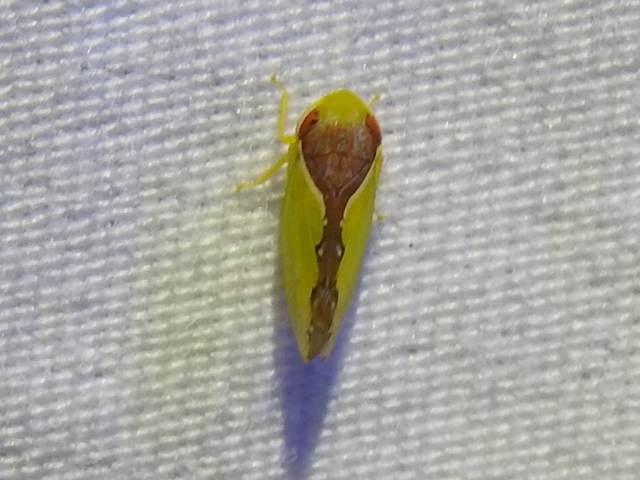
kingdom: Animalia
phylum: Arthropoda
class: Insecta
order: Hemiptera
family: Cicadellidae
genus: Omansobara ing
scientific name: Omansobara ing Omansobara palliolata
